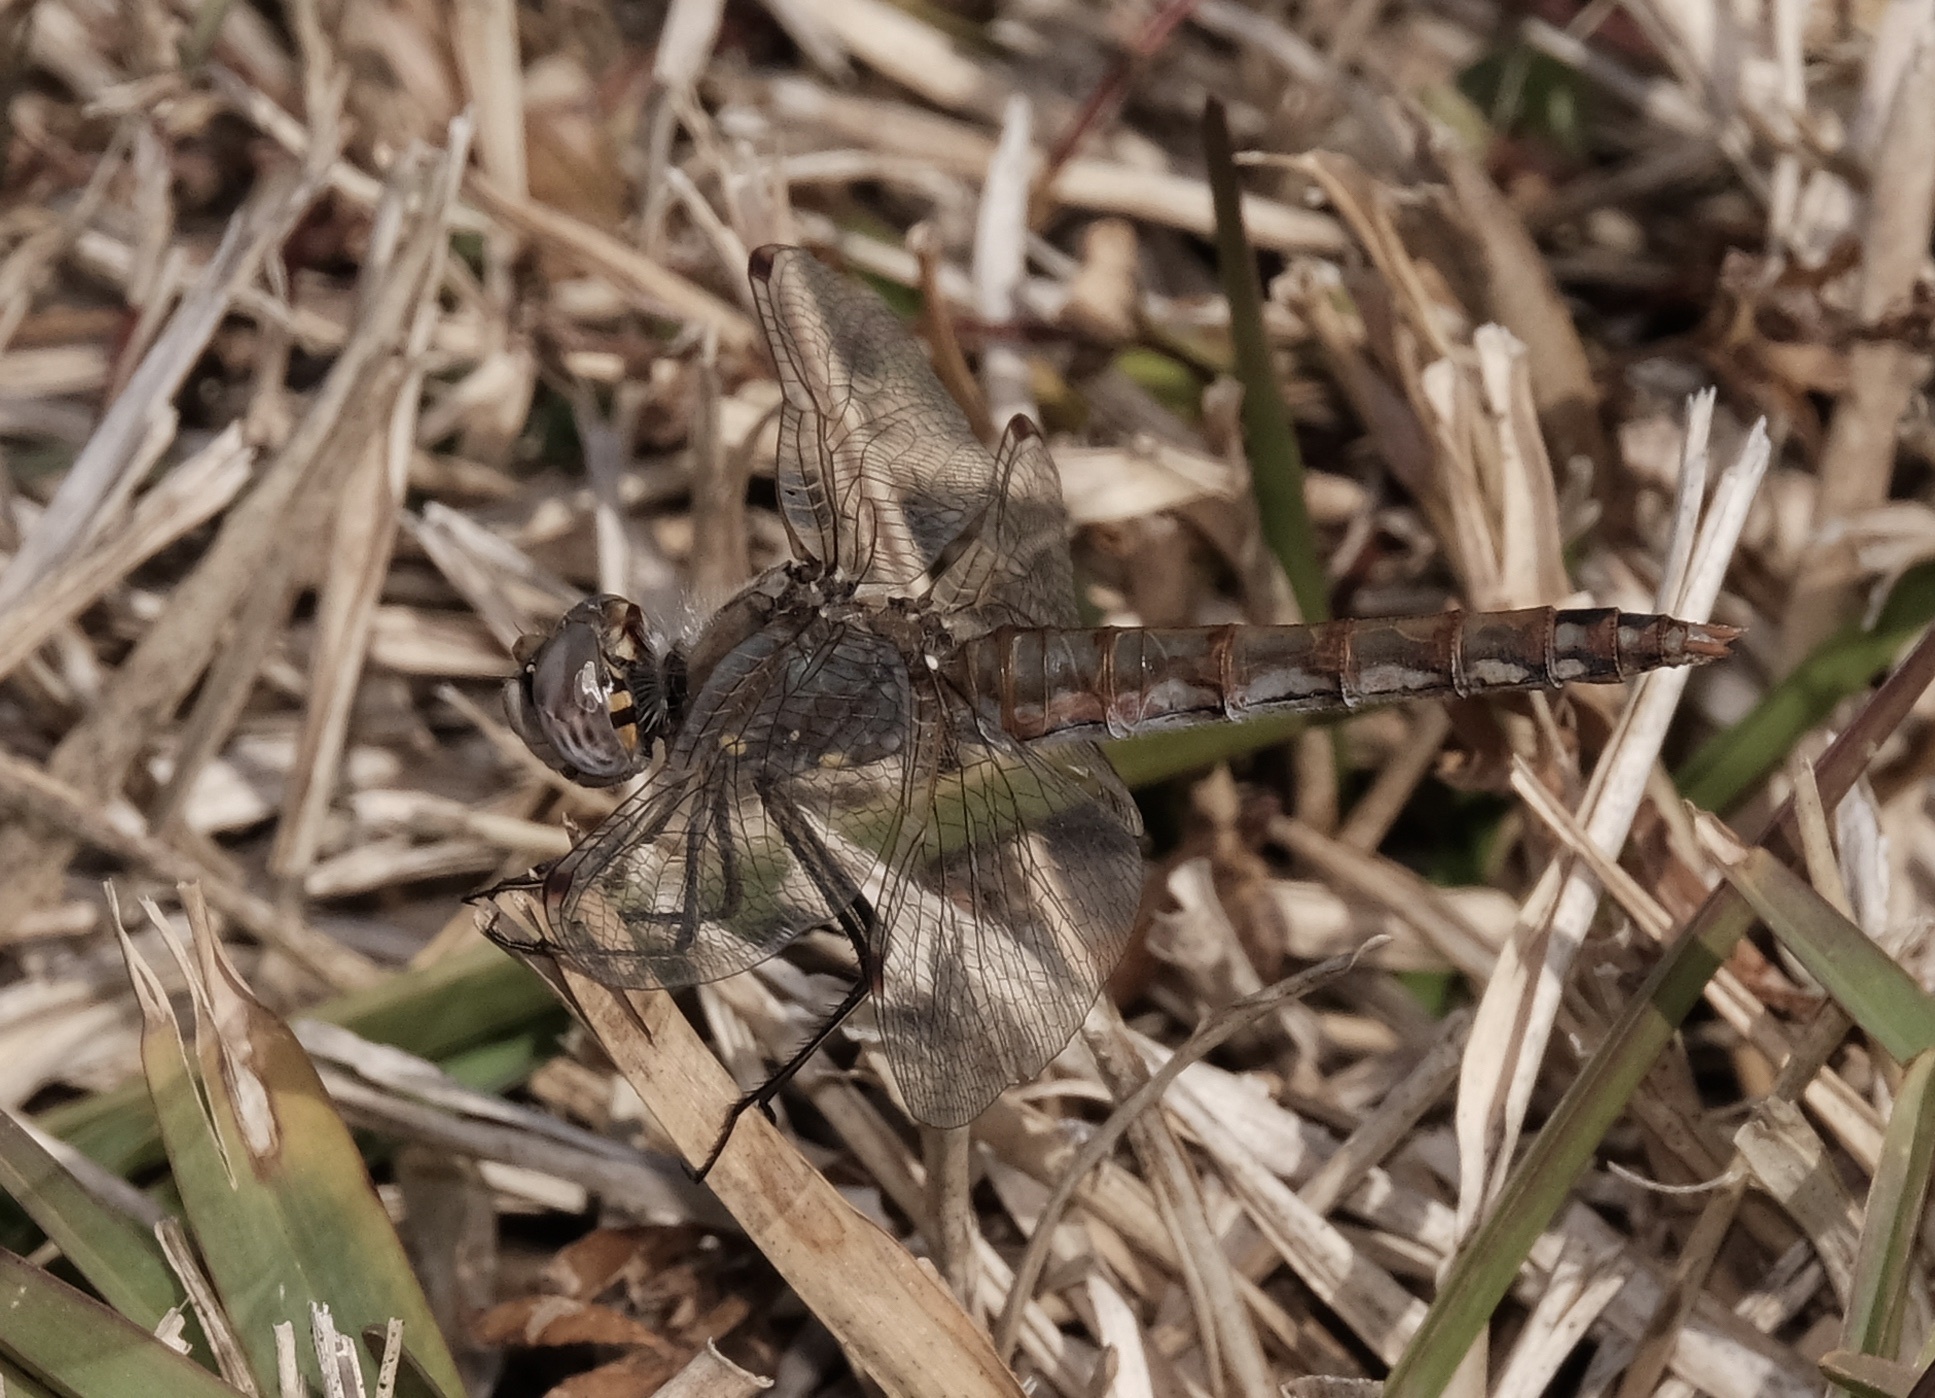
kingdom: Animalia
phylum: Arthropoda
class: Insecta
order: Odonata
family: Libellulidae
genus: Sympetrum
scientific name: Sympetrum corruptum
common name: Variegated meadowhawk
